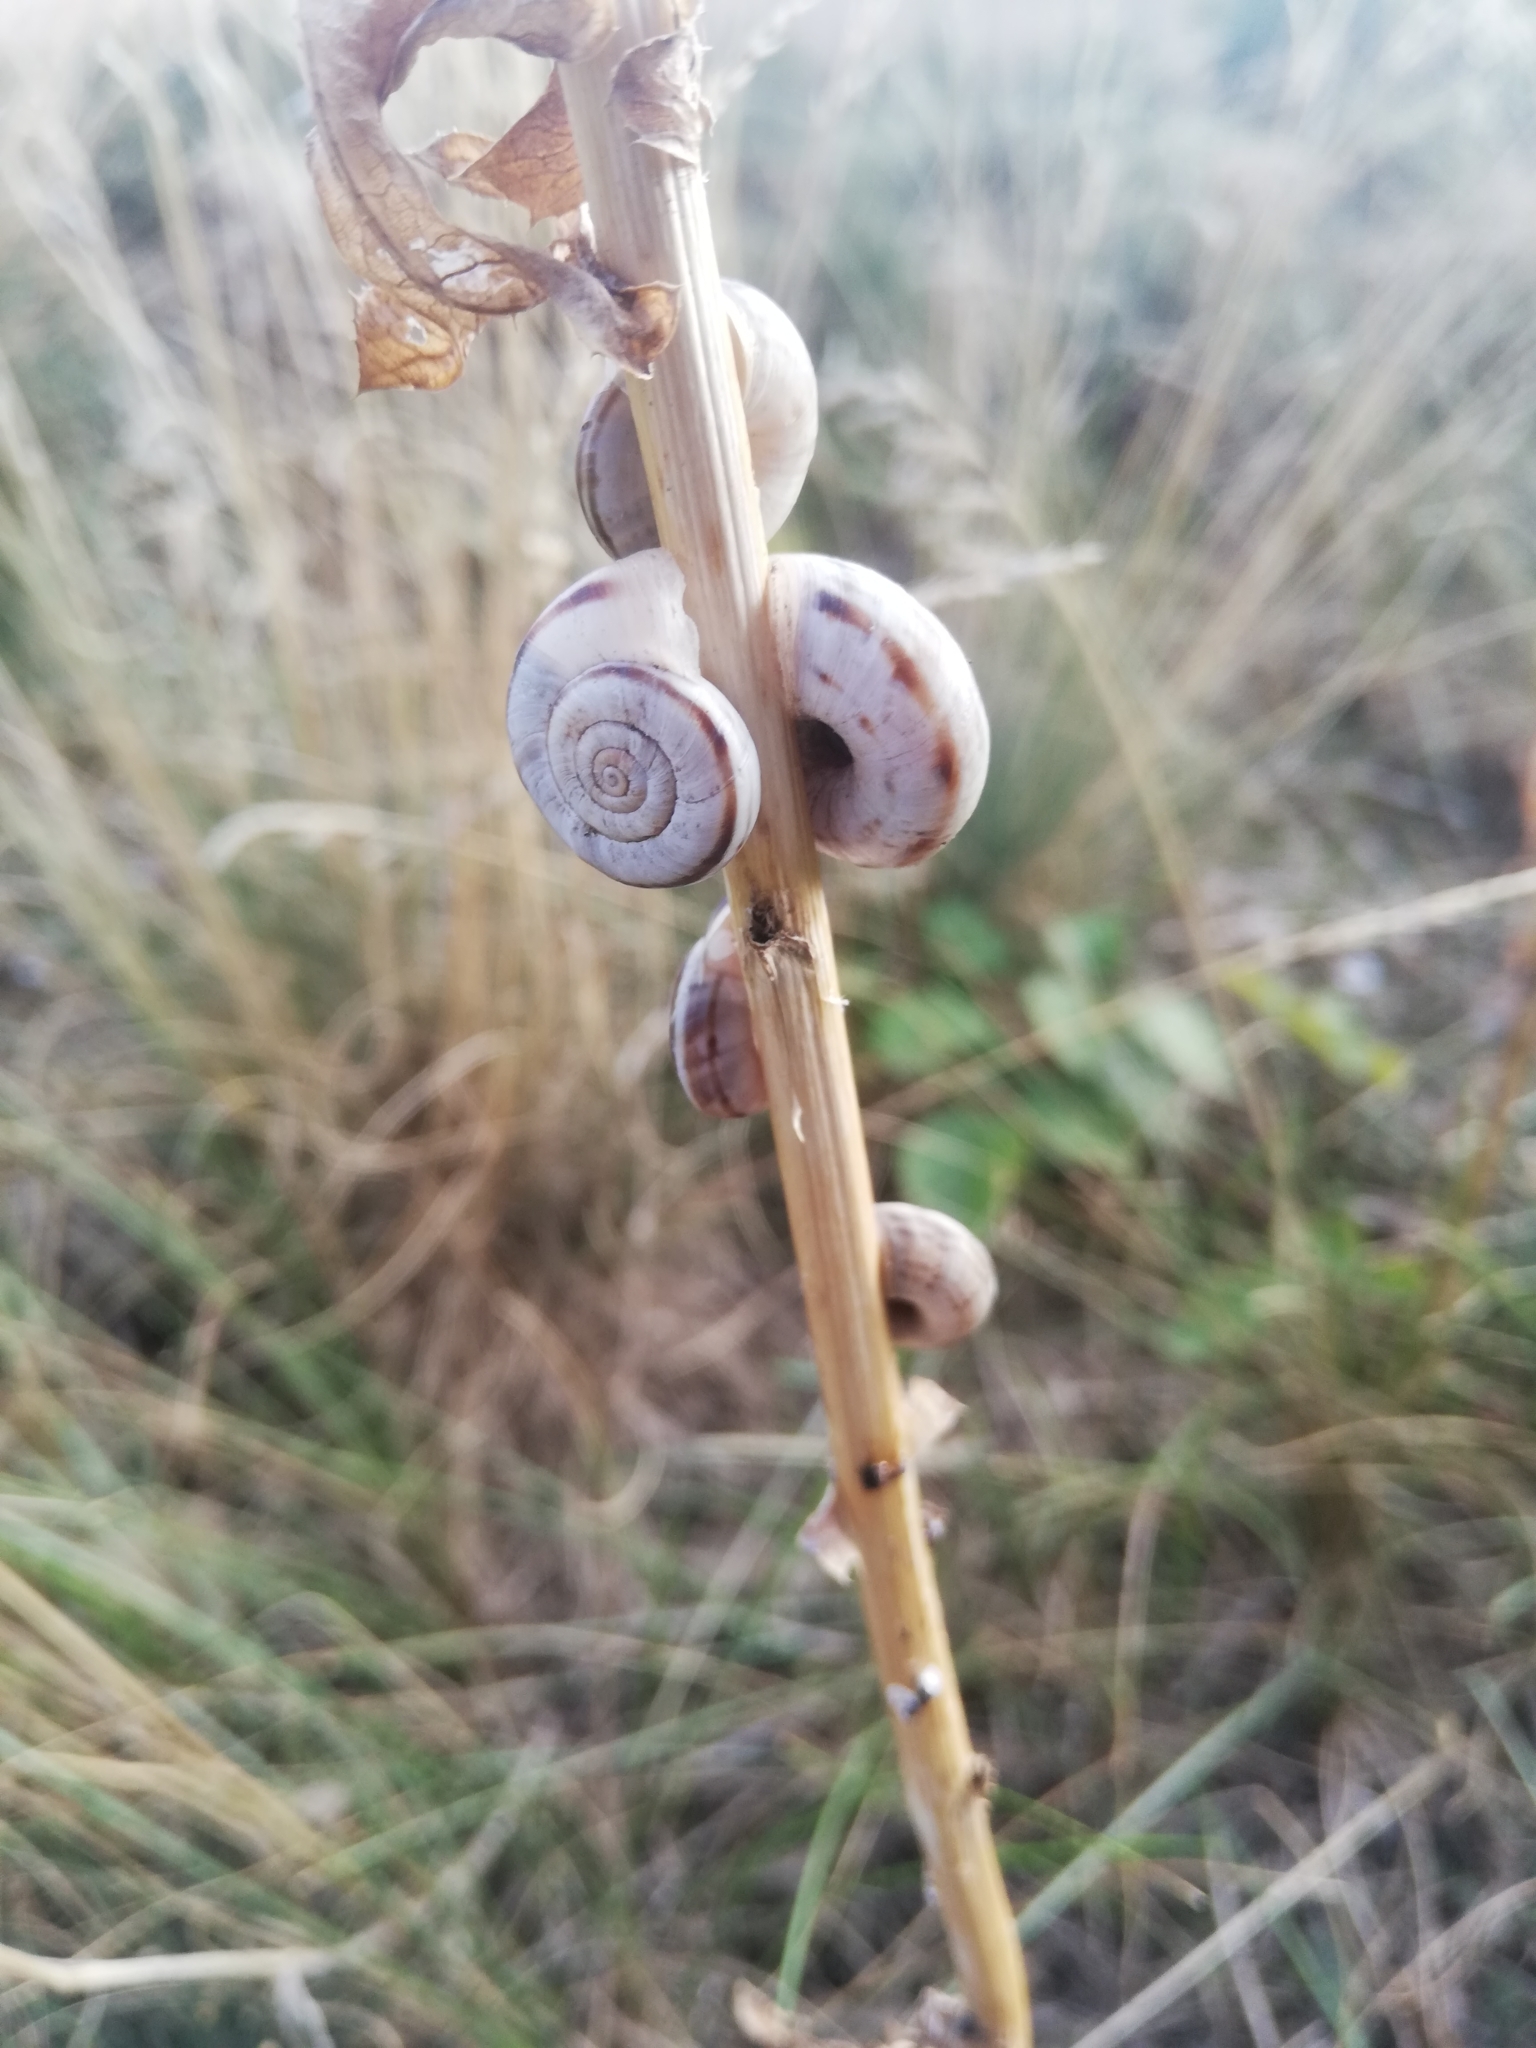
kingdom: Animalia
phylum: Mollusca
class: Gastropoda
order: Stylommatophora
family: Geomitridae
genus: Xerolenta
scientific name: Xerolenta obvia
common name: White heath snail
